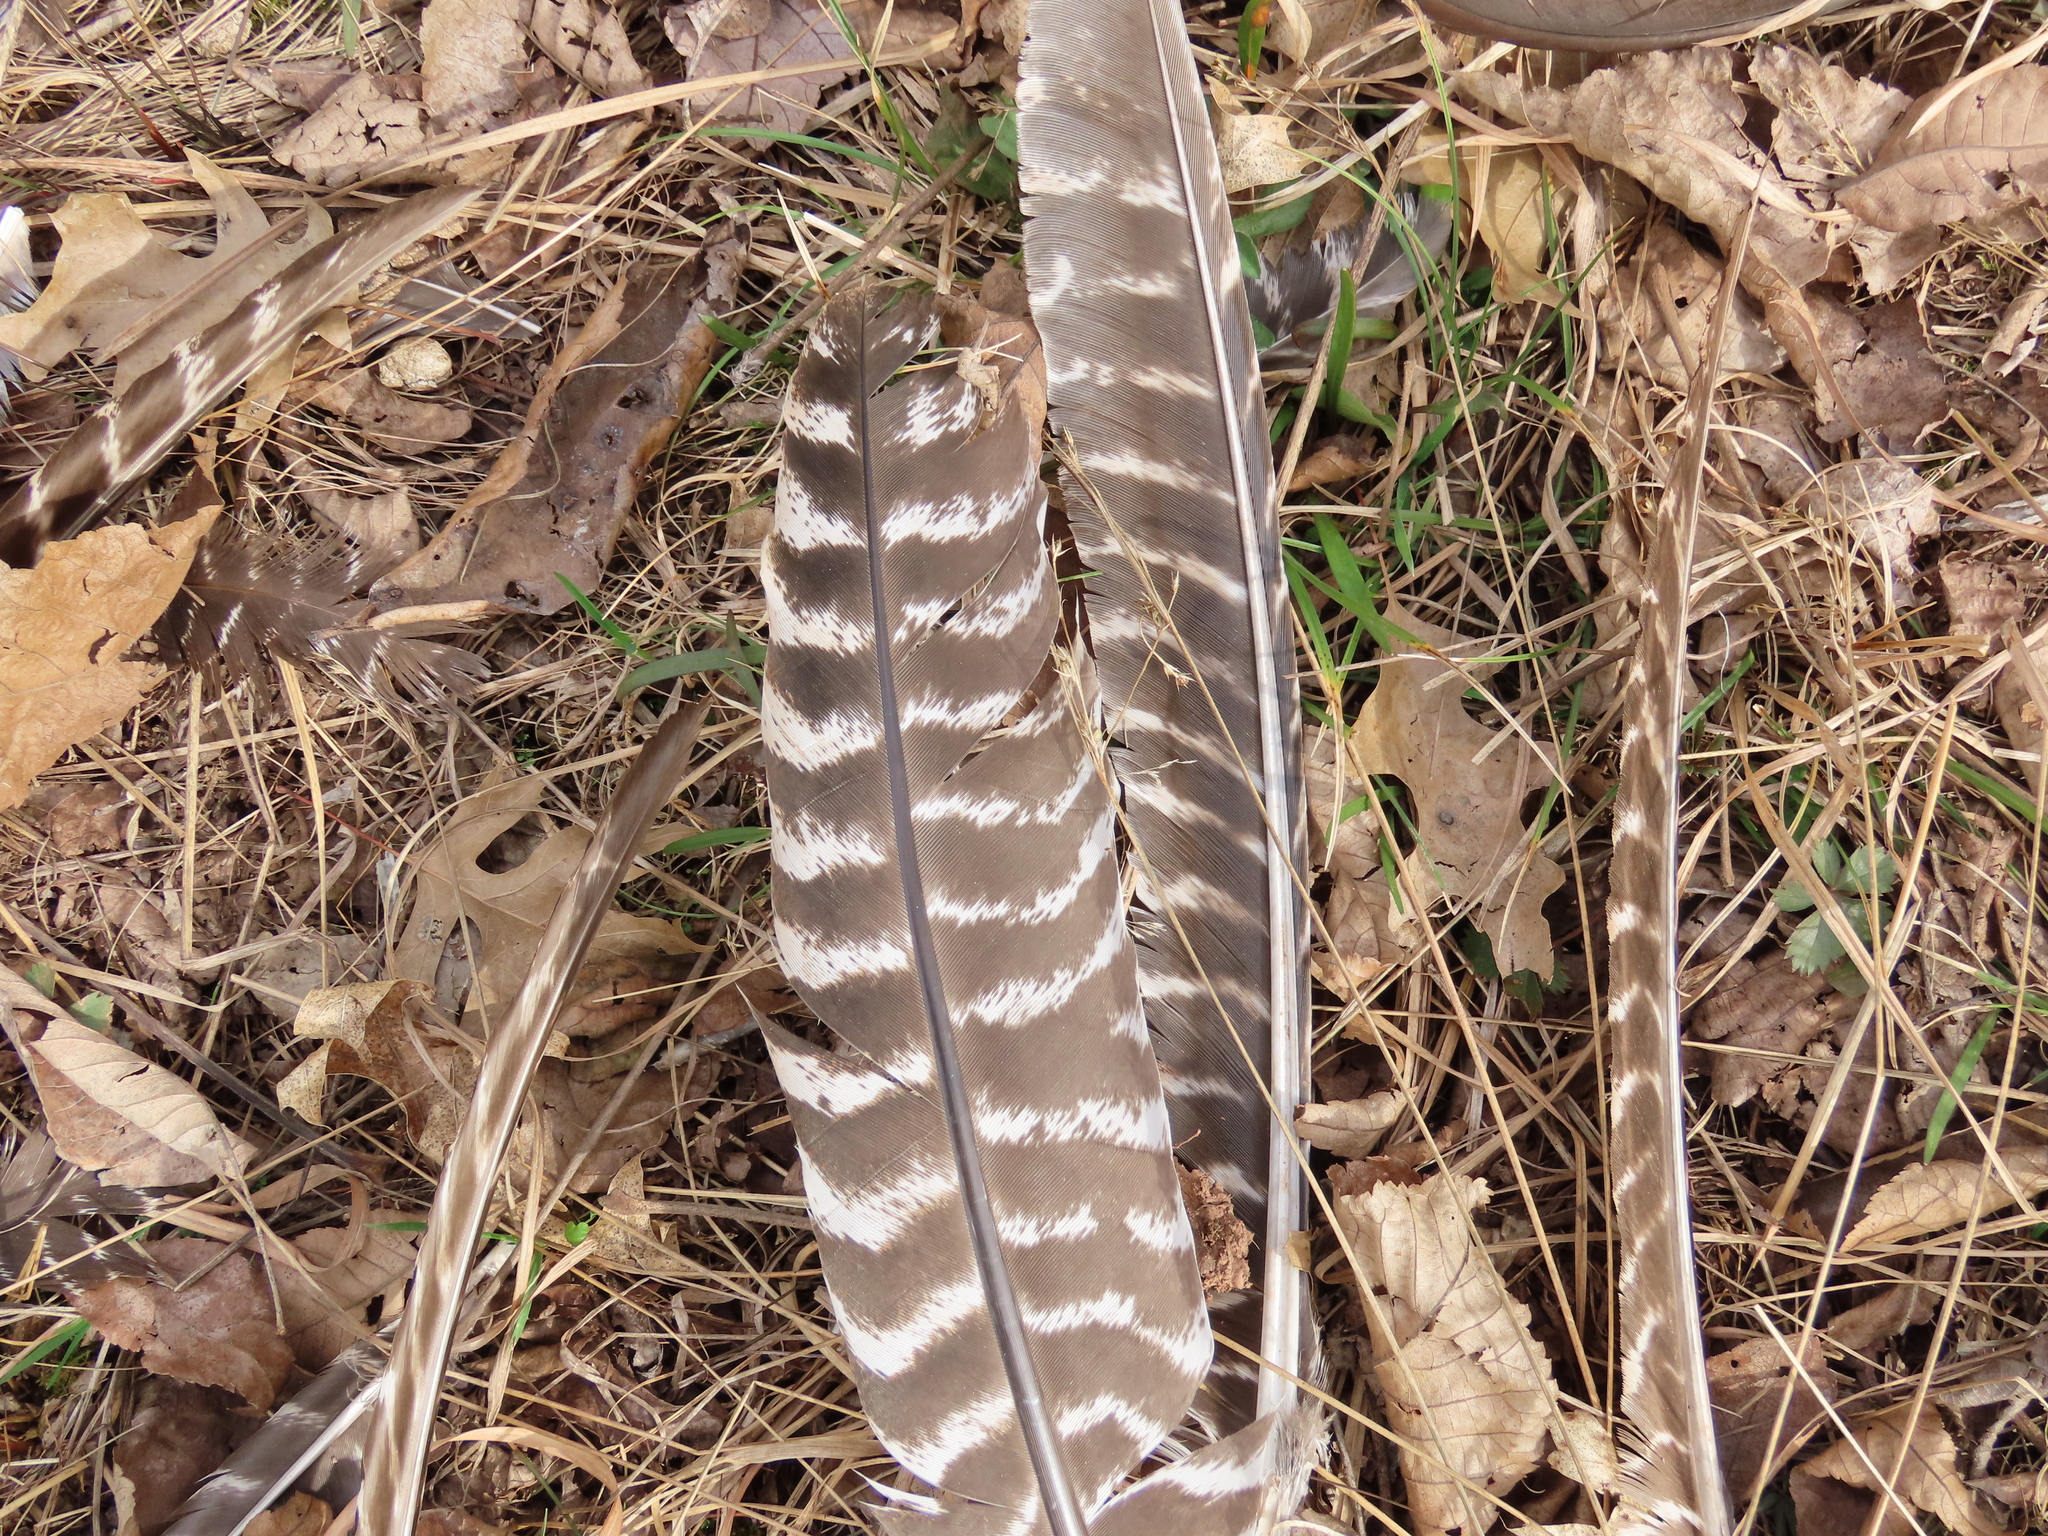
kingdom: Animalia
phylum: Chordata
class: Aves
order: Galliformes
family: Phasianidae
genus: Meleagris
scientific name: Meleagris gallopavo
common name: Wild turkey
